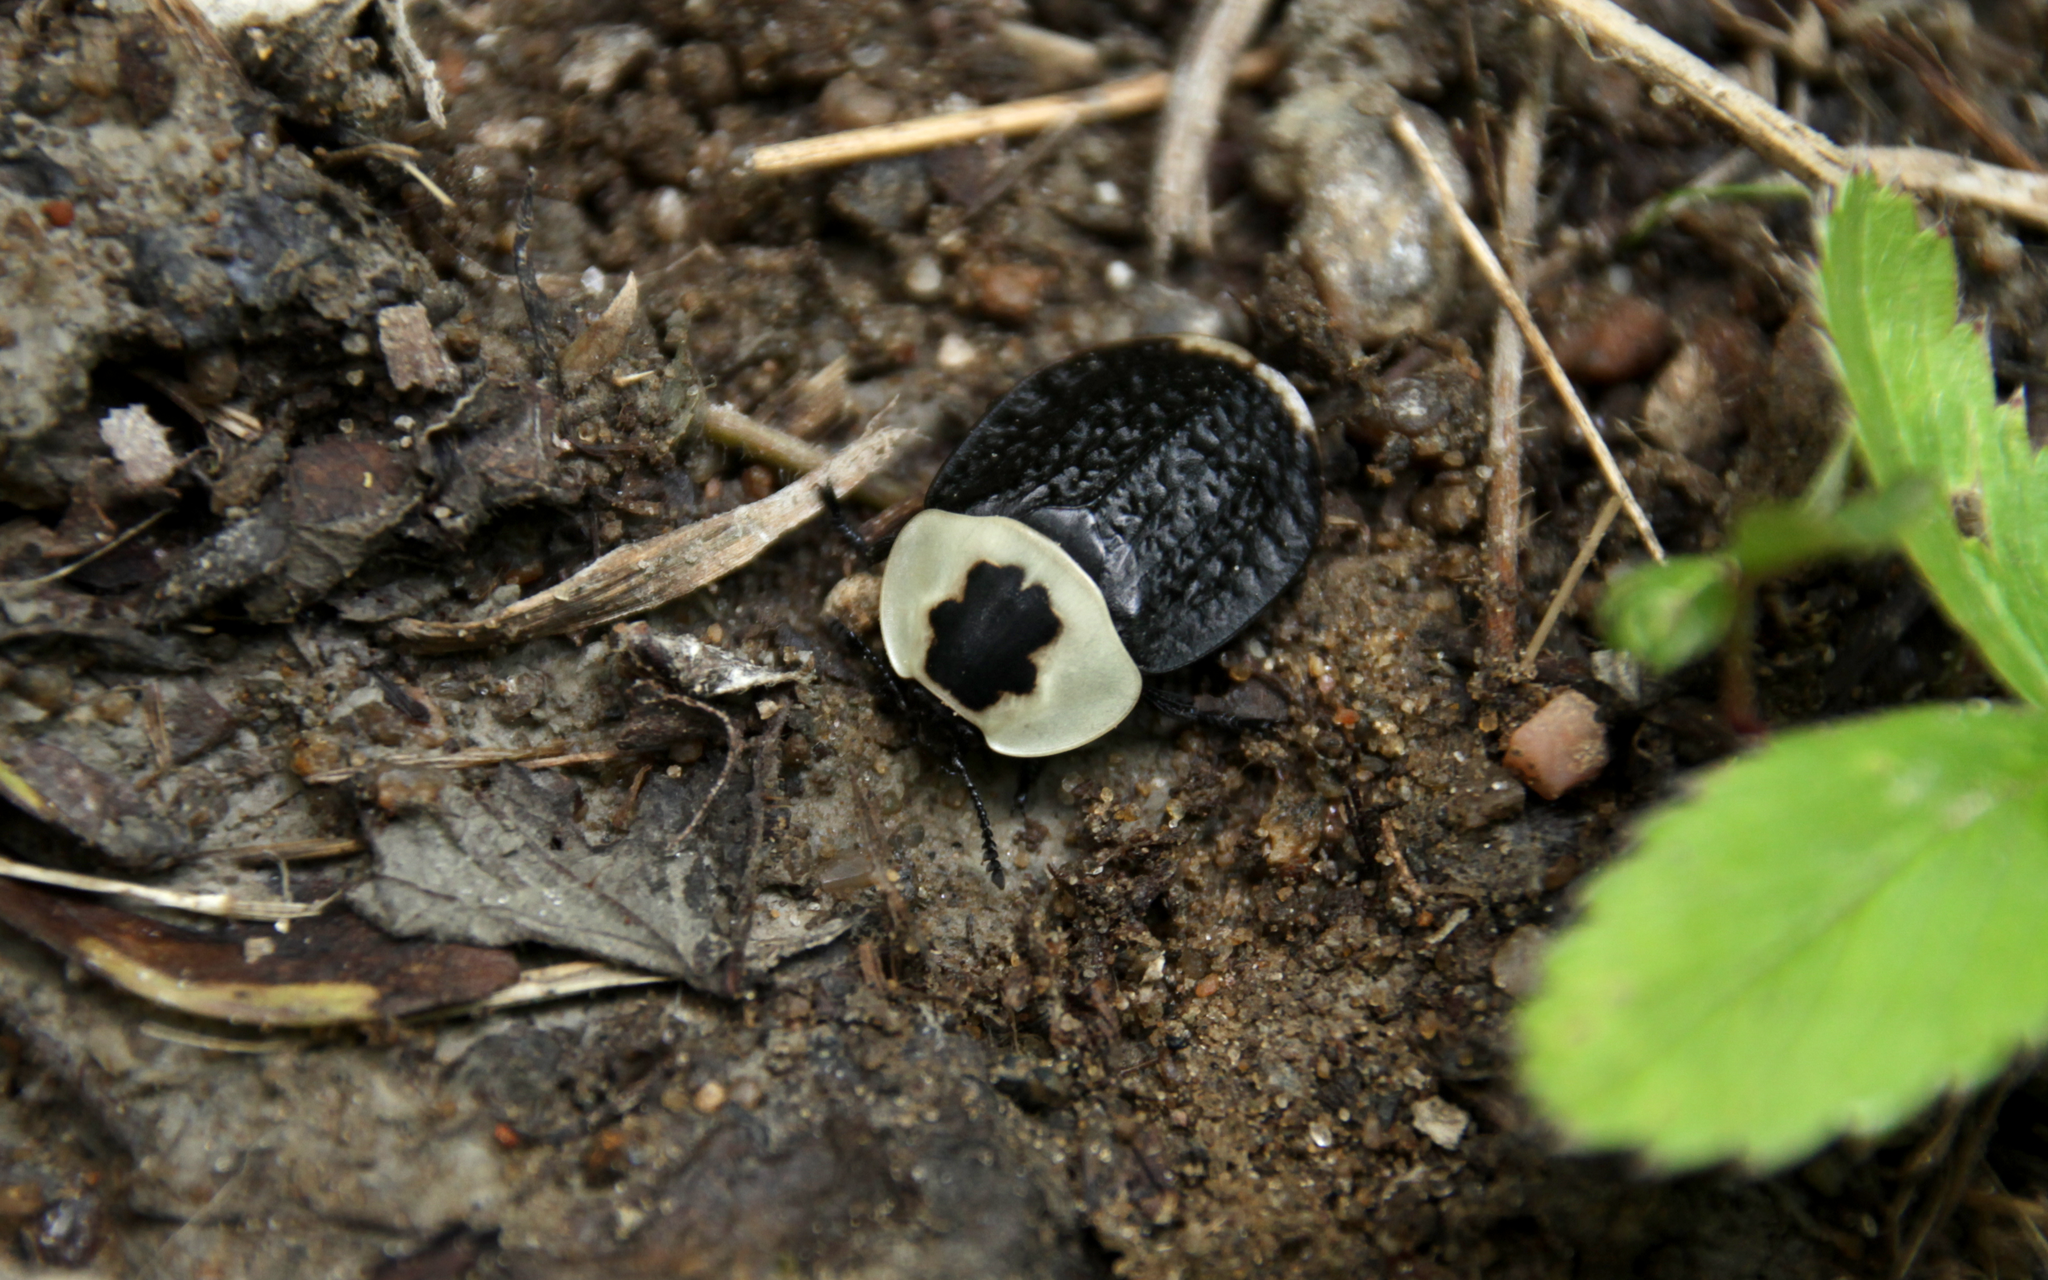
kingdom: Animalia
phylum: Arthropoda
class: Insecta
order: Coleoptera
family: Staphylinidae
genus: Necrophila
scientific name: Necrophila americana
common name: American carrion beetle
